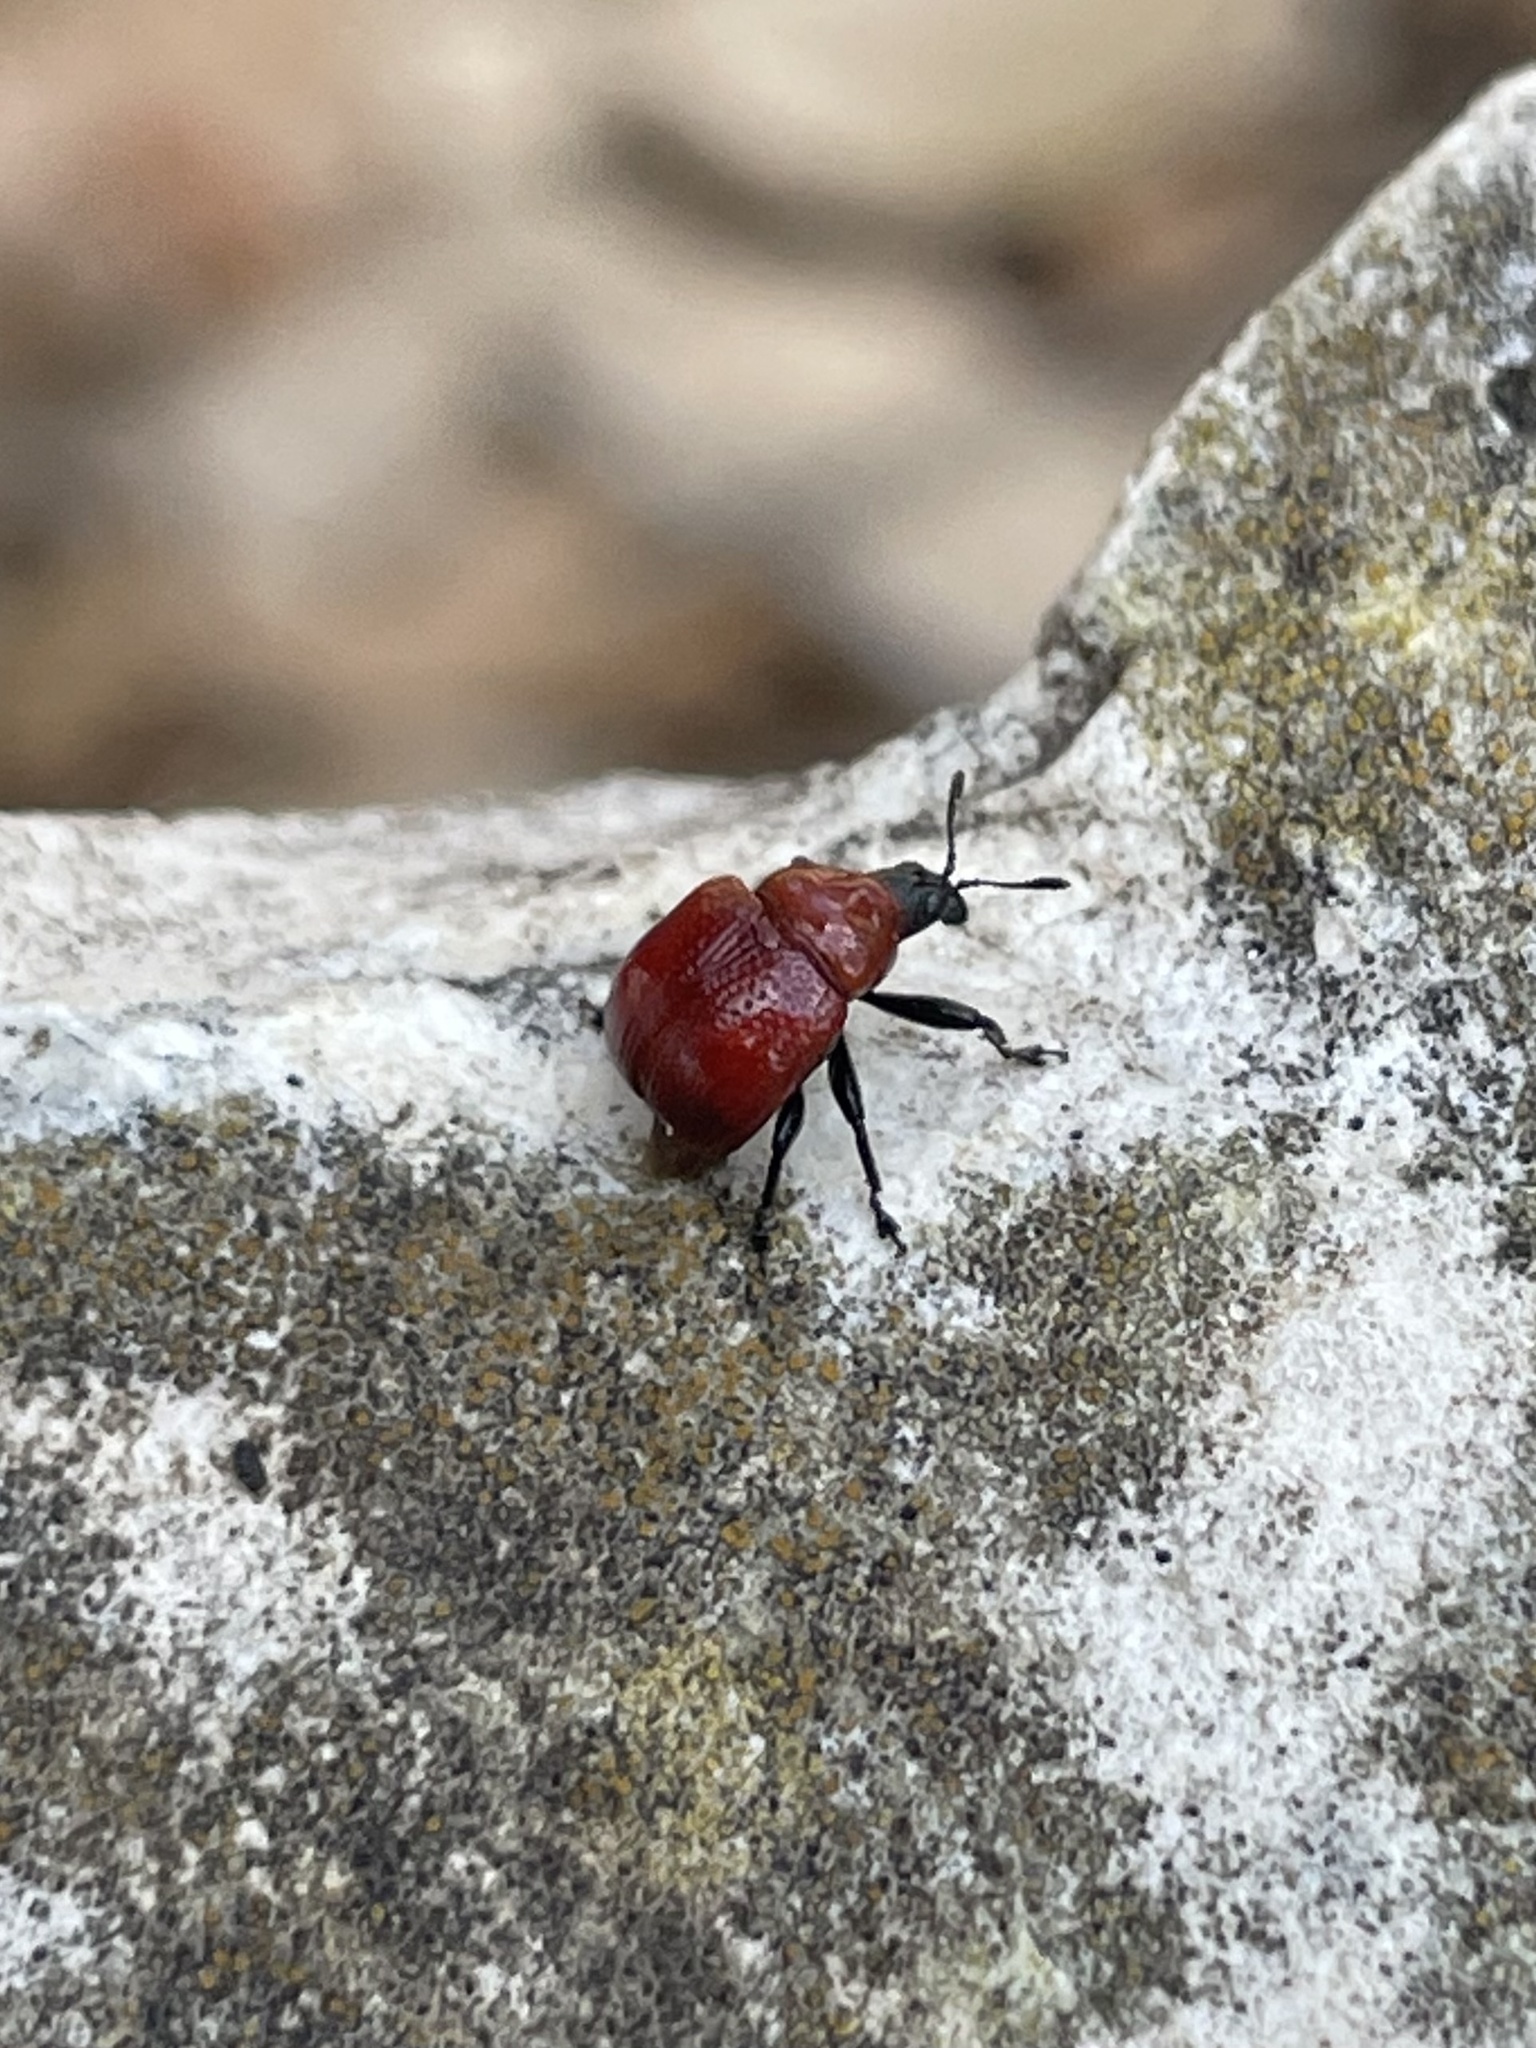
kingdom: Animalia
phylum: Arthropoda
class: Insecta
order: Coleoptera
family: Attelabidae
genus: Homoeolabus
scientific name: Homoeolabus analis
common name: Oak leaf rolling weevil
